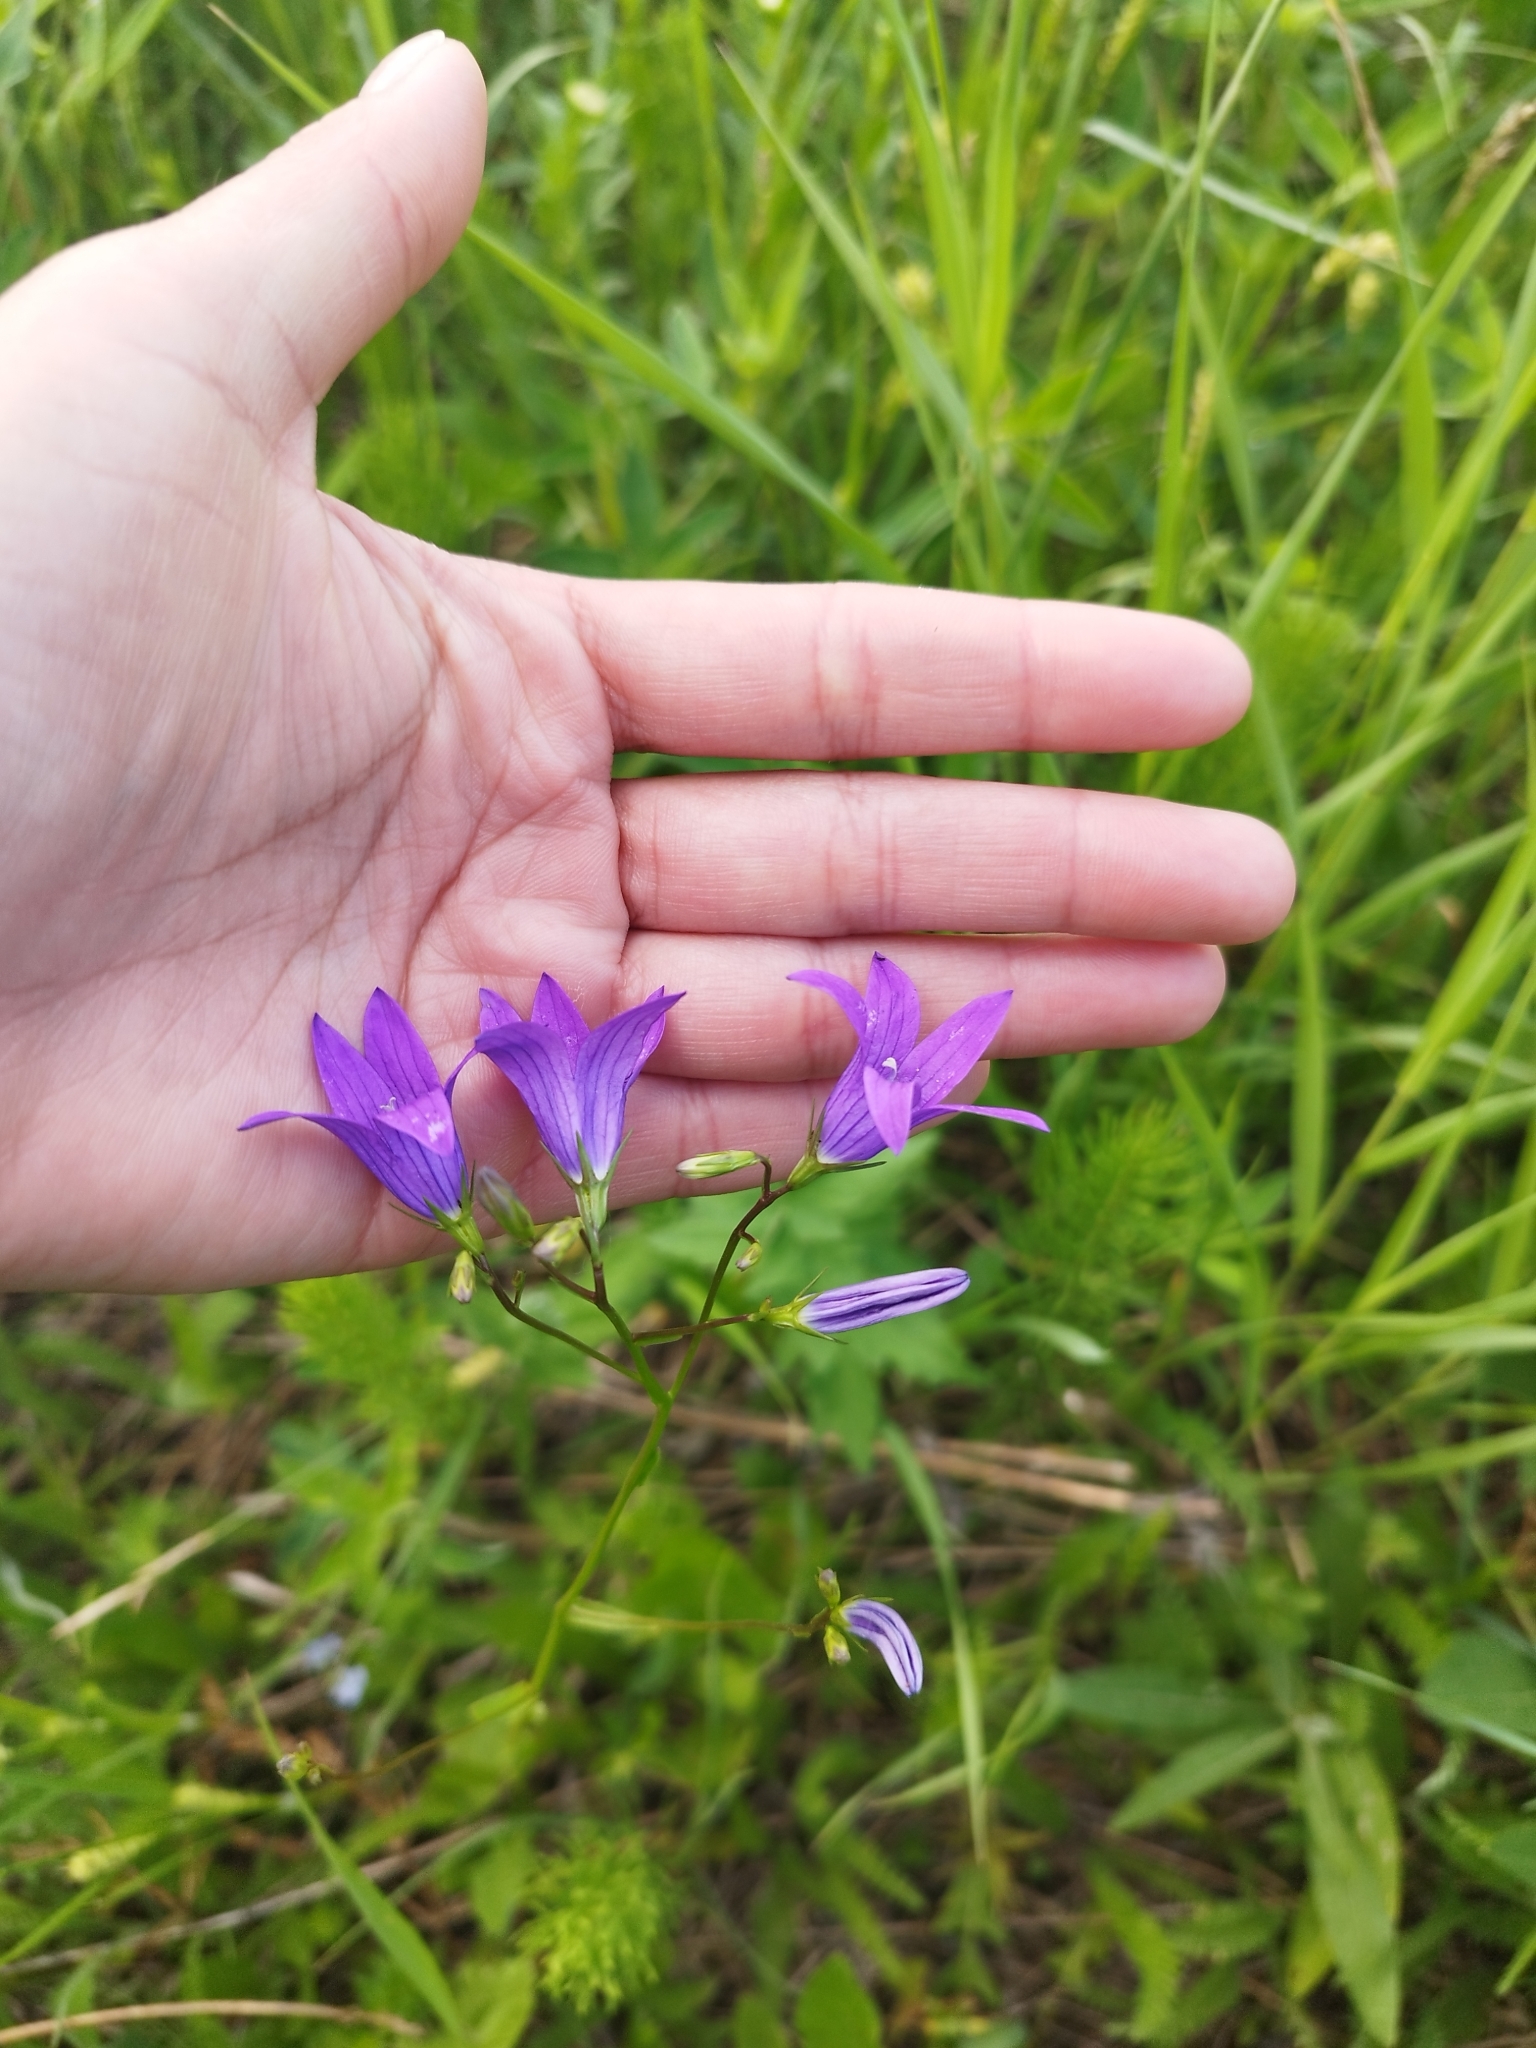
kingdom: Plantae
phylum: Tracheophyta
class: Magnoliopsida
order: Asterales
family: Campanulaceae
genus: Campanula
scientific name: Campanula patula
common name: Spreading bellflower
